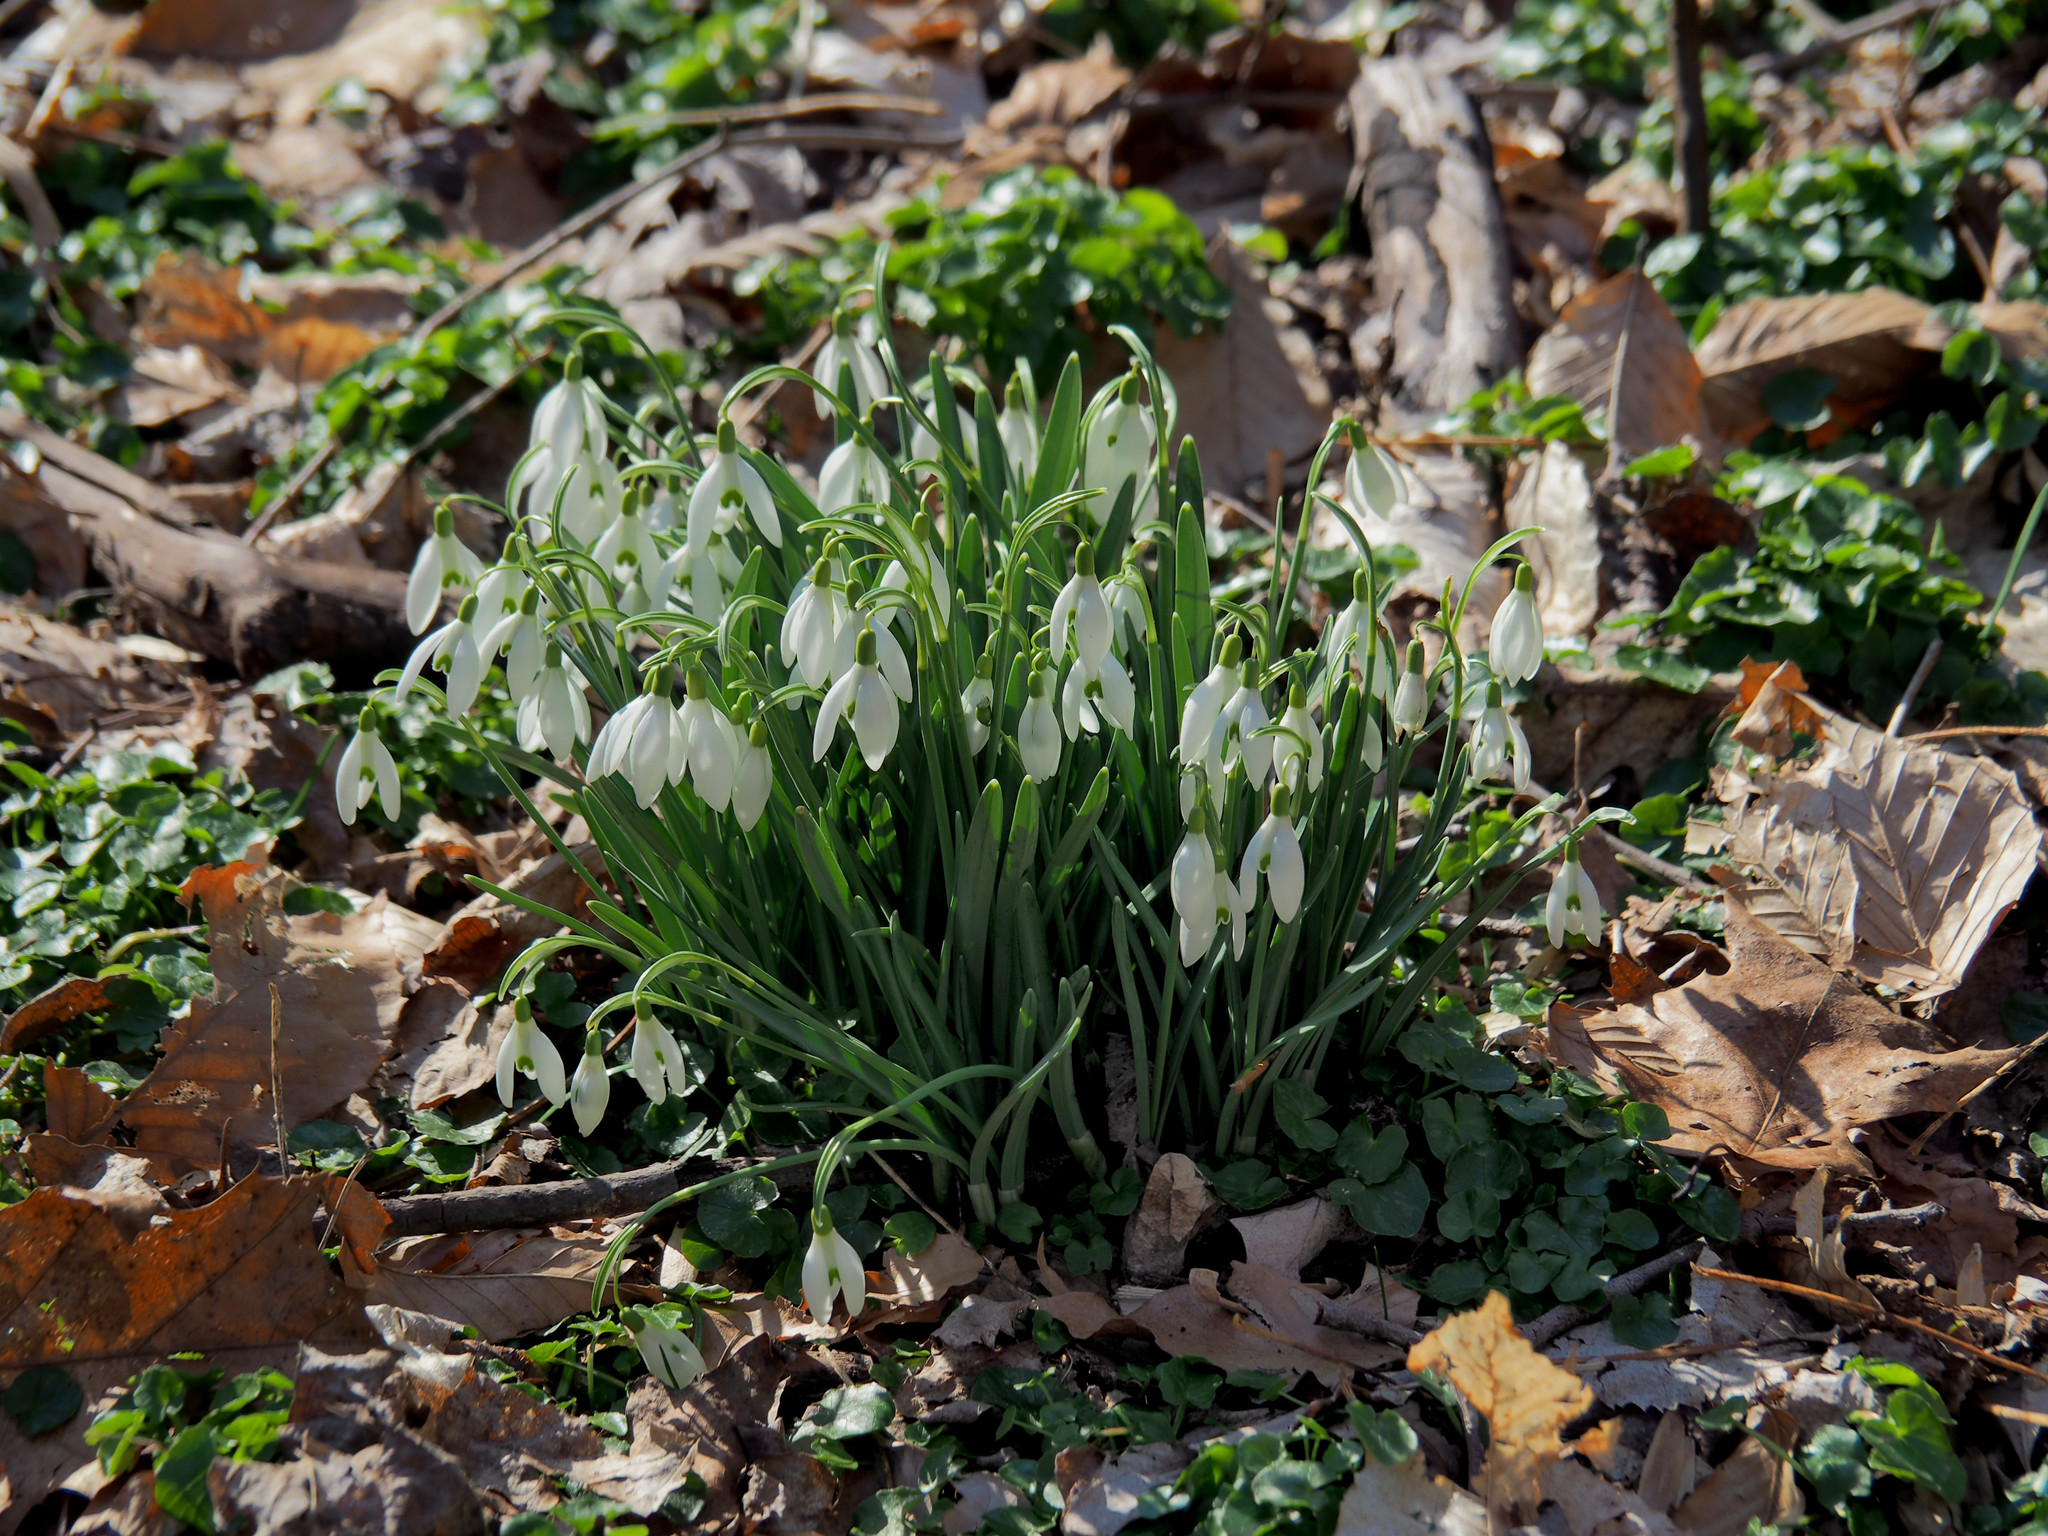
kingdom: Plantae
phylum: Tracheophyta
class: Liliopsida
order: Asparagales
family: Amaryllidaceae
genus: Galanthus
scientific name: Galanthus nivalis
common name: Snowdrop
